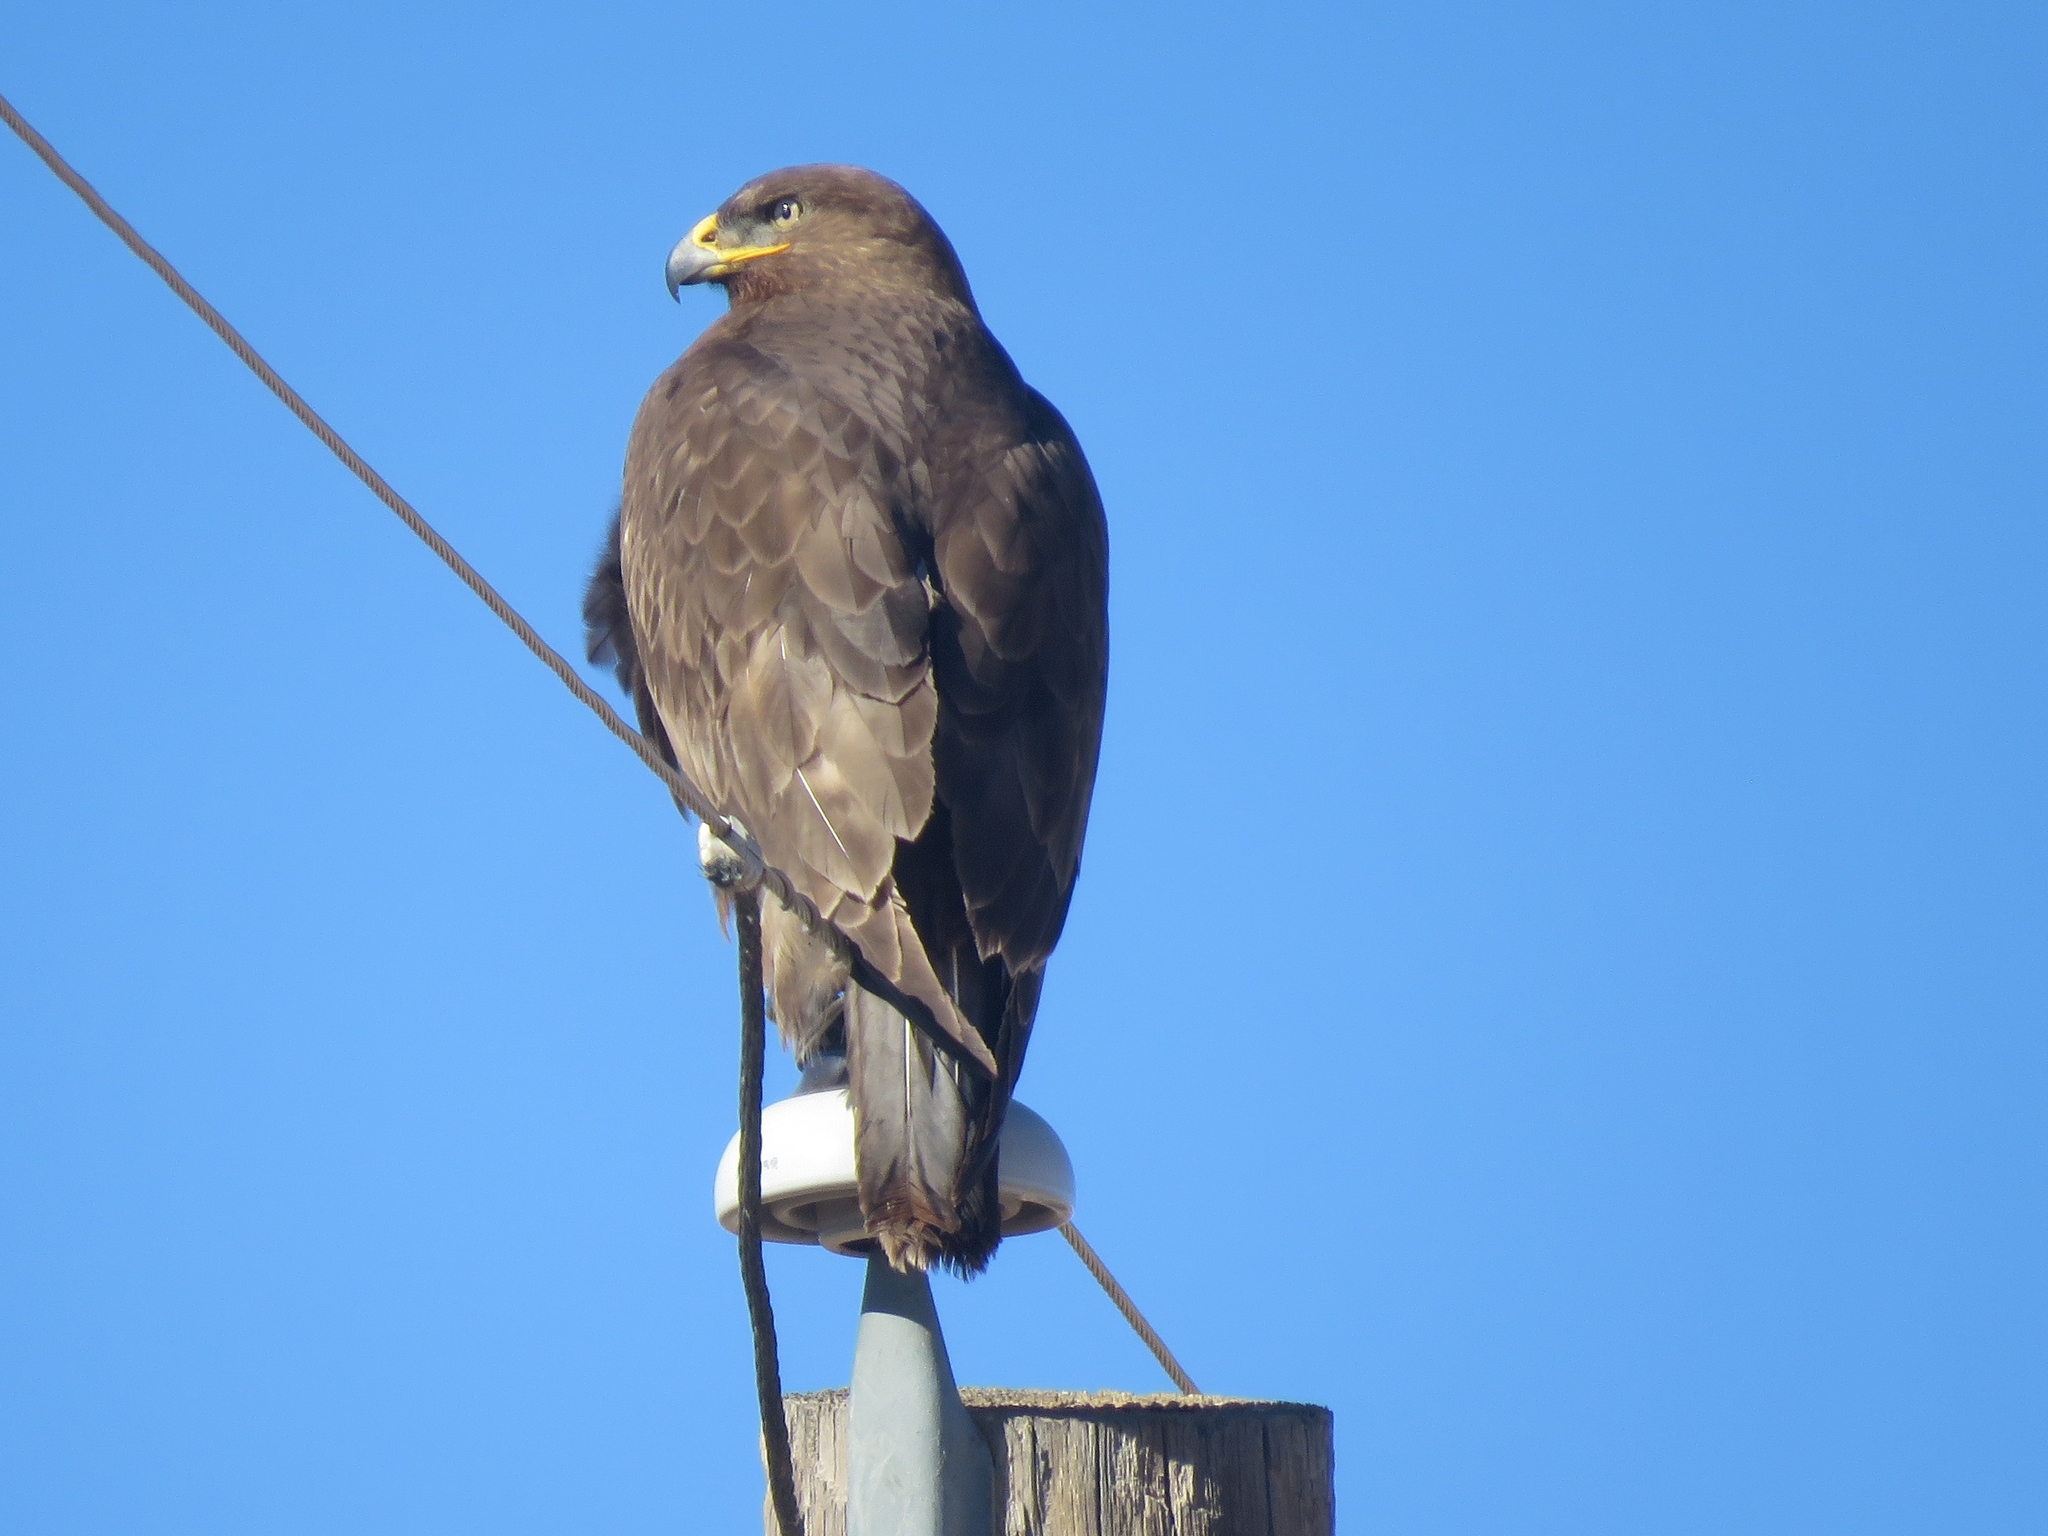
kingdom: Animalia
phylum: Chordata
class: Aves
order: Accipitriformes
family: Accipitridae
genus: Buteo
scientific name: Buteo regalis
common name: Ferruginous hawk
